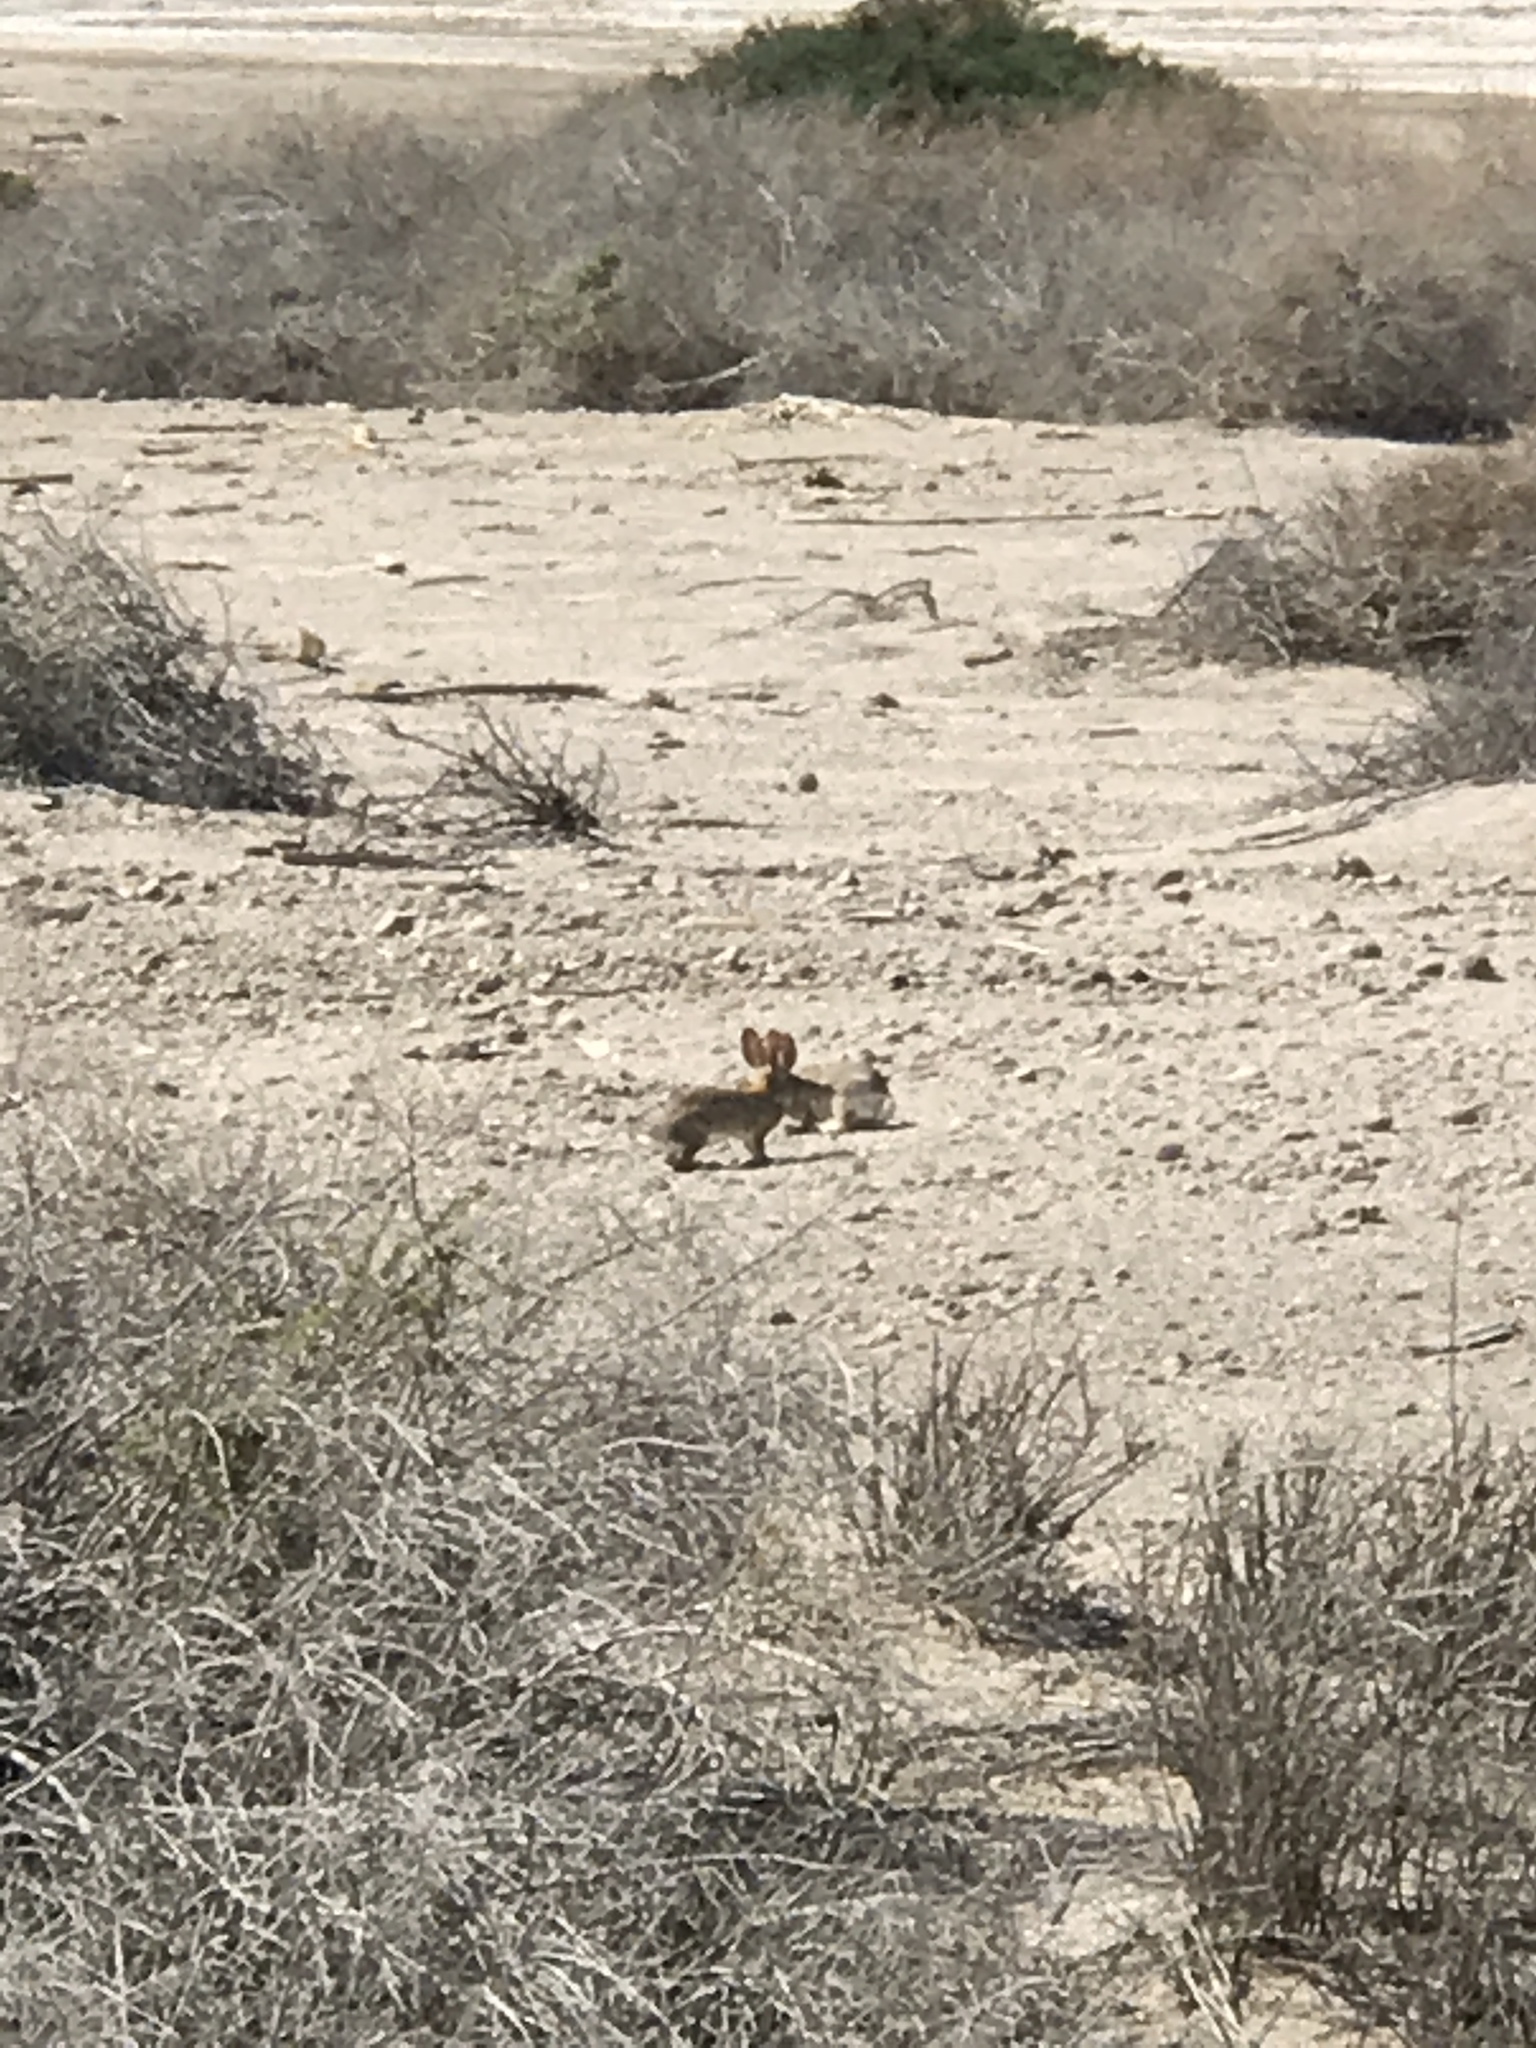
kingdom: Animalia
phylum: Chordata
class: Mammalia
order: Lagomorpha
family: Leporidae
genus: Sylvilagus
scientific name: Sylvilagus audubonii
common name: Desert cottontail
